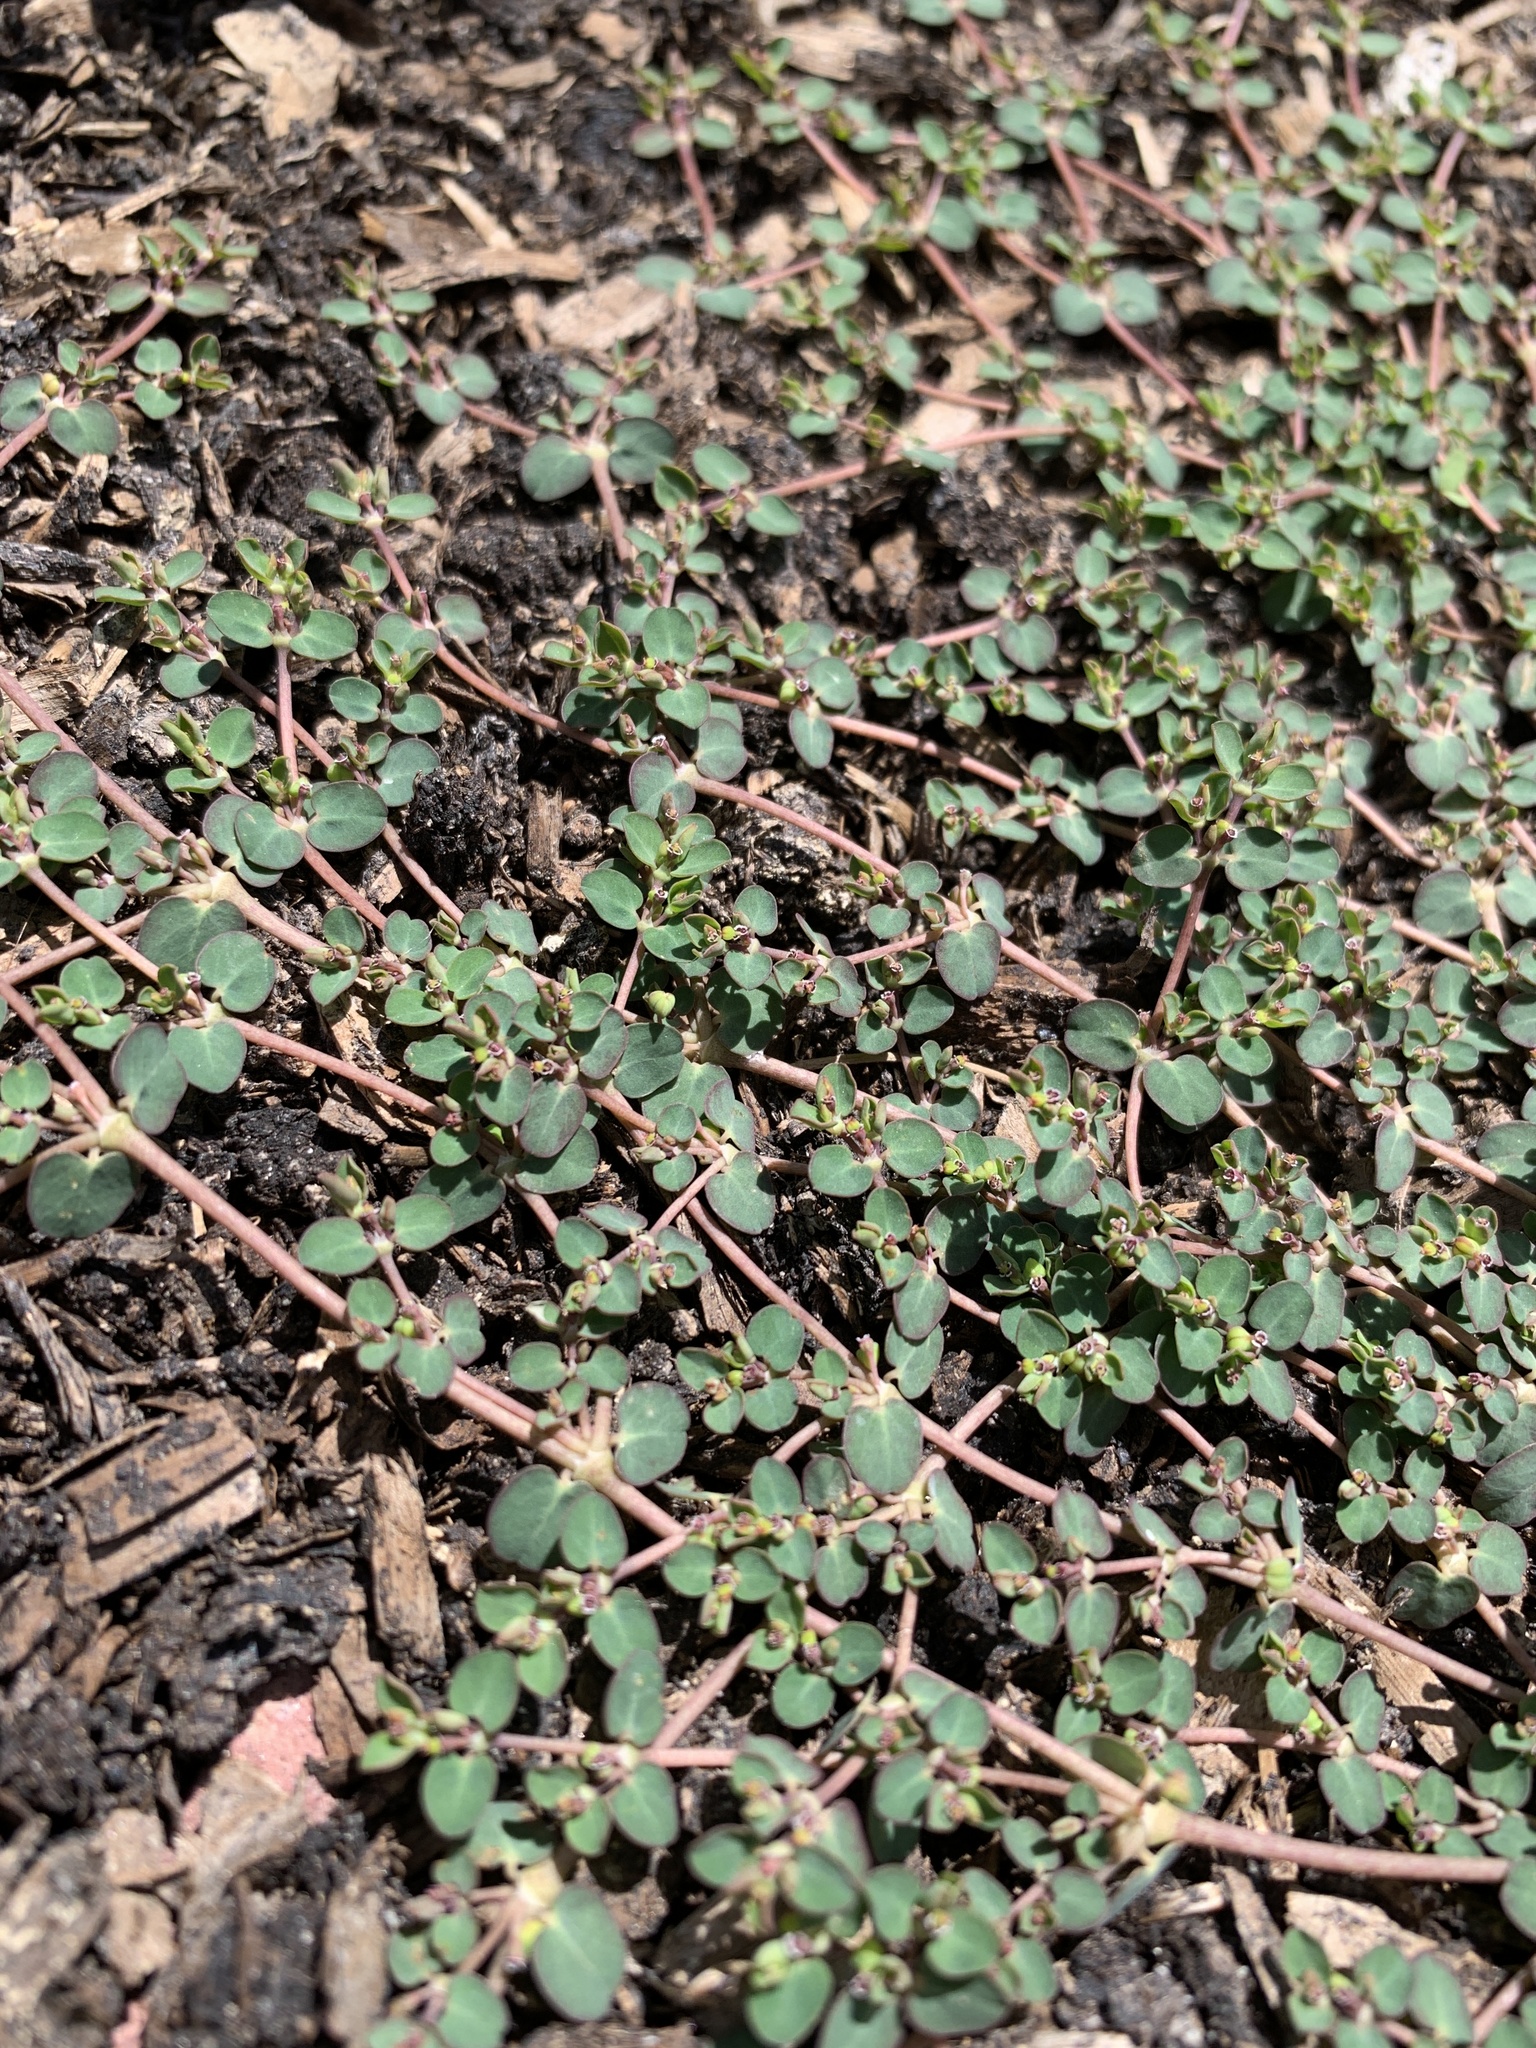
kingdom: Plantae
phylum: Tracheophyta
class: Magnoliopsida
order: Malpighiales
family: Euphorbiaceae
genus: Euphorbia
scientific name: Euphorbia serpens
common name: Matted sandmat
